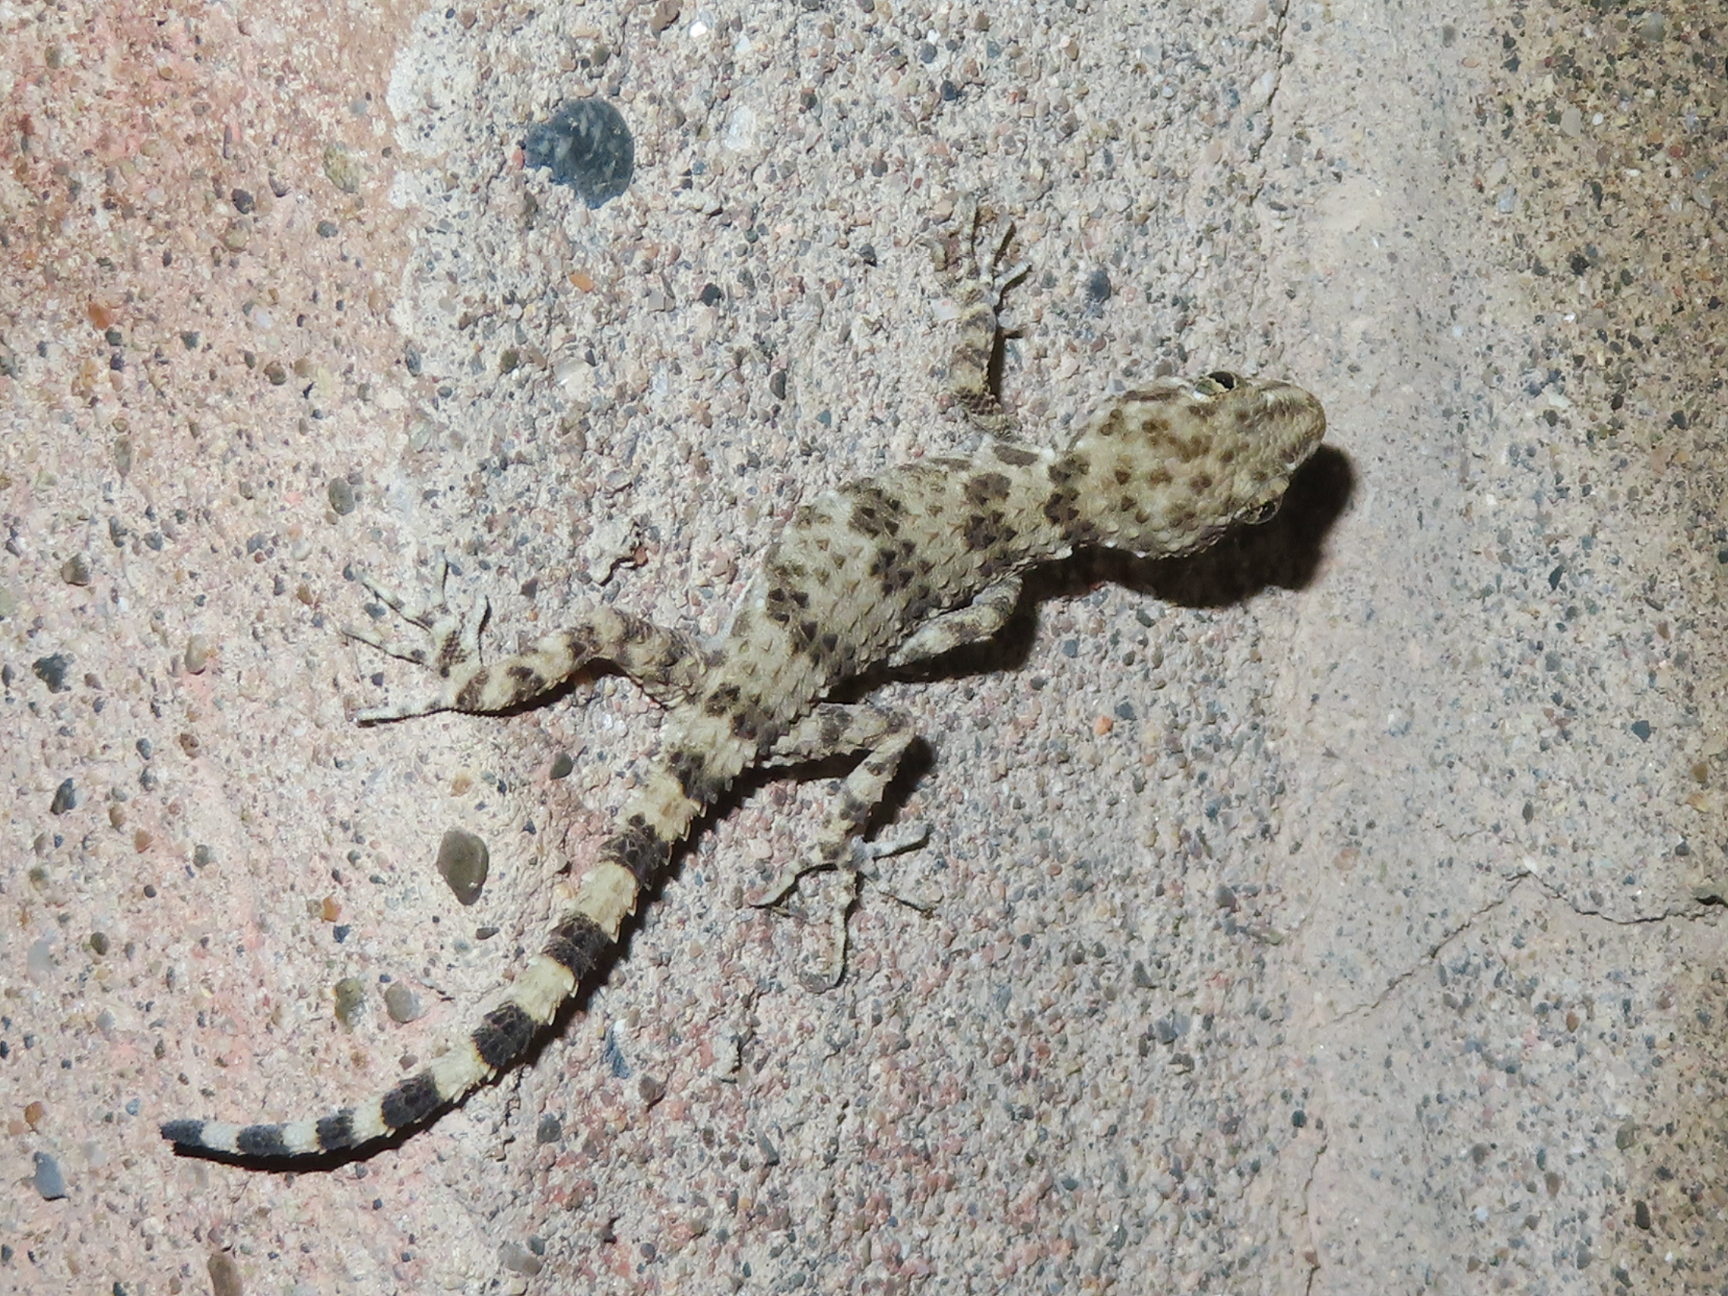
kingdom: Animalia
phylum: Chordata
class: Squamata
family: Gekkonidae
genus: Tenuidactylus
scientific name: Tenuidactylus caspius
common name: Caspian bent-toed gecko
